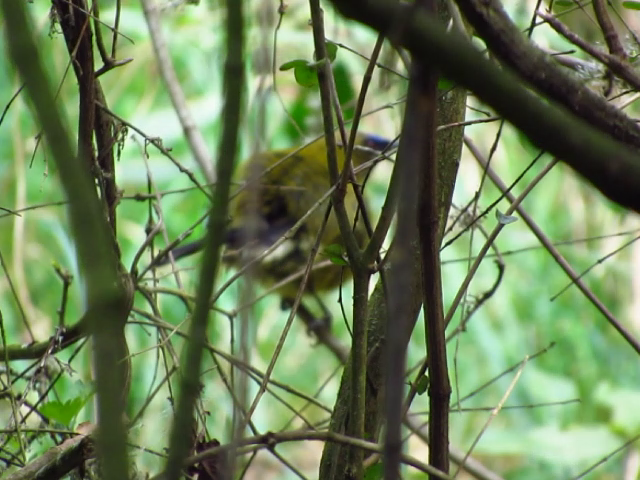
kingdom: Animalia
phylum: Chordata
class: Aves
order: Passeriformes
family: Meliphagidae
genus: Anthornis
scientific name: Anthornis melanura
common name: New zealand bellbird
